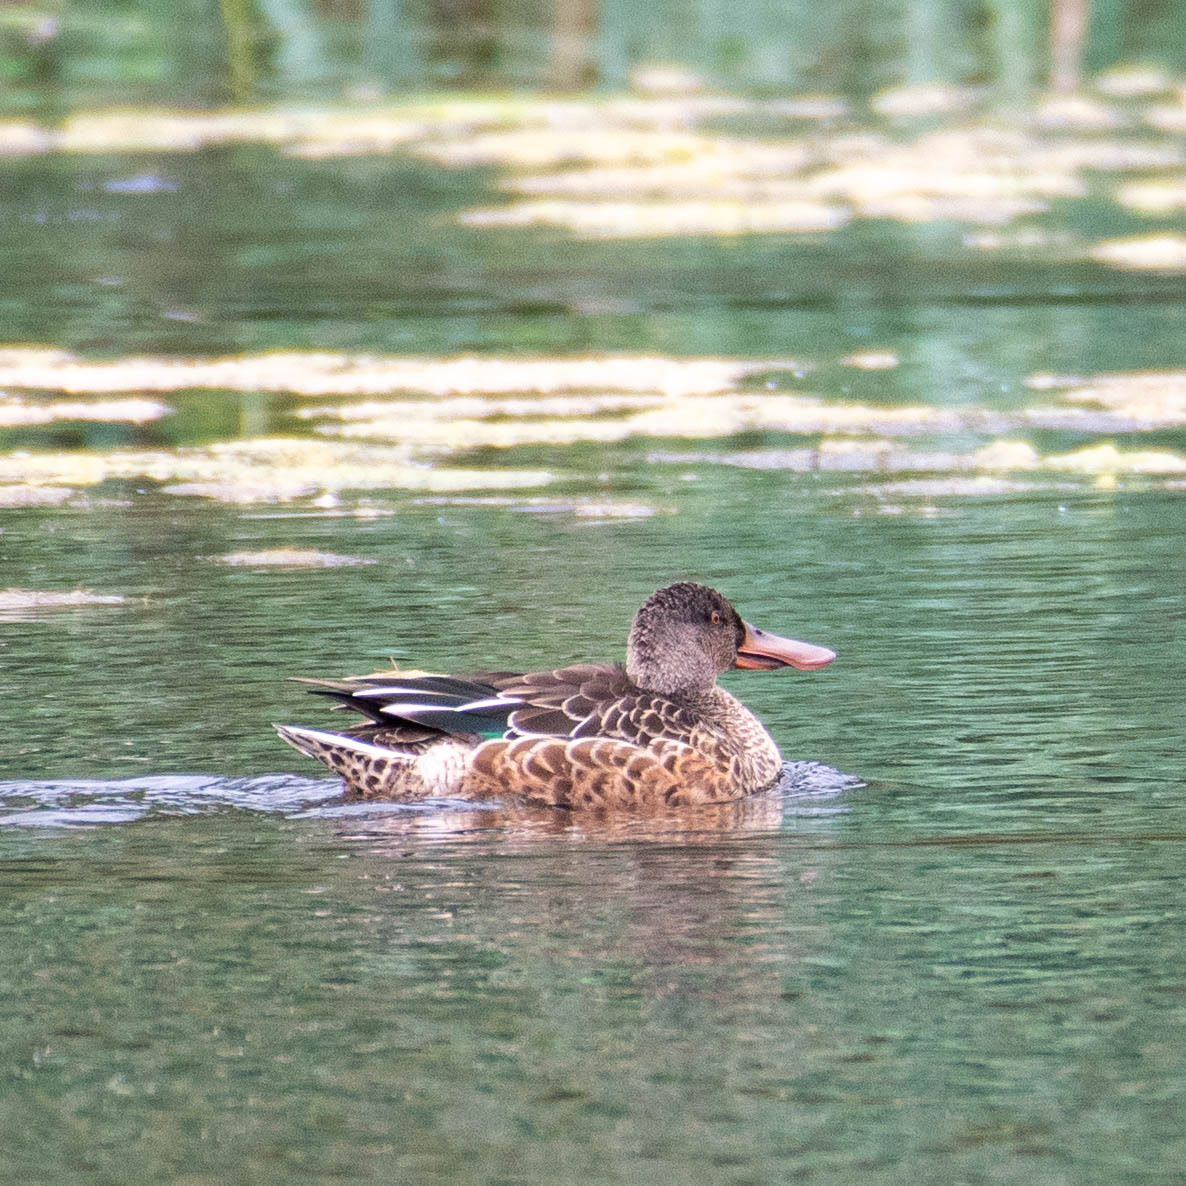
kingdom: Animalia
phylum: Chordata
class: Aves
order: Anseriformes
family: Anatidae
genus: Spatula
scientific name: Spatula clypeata
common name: Northern shoveler
